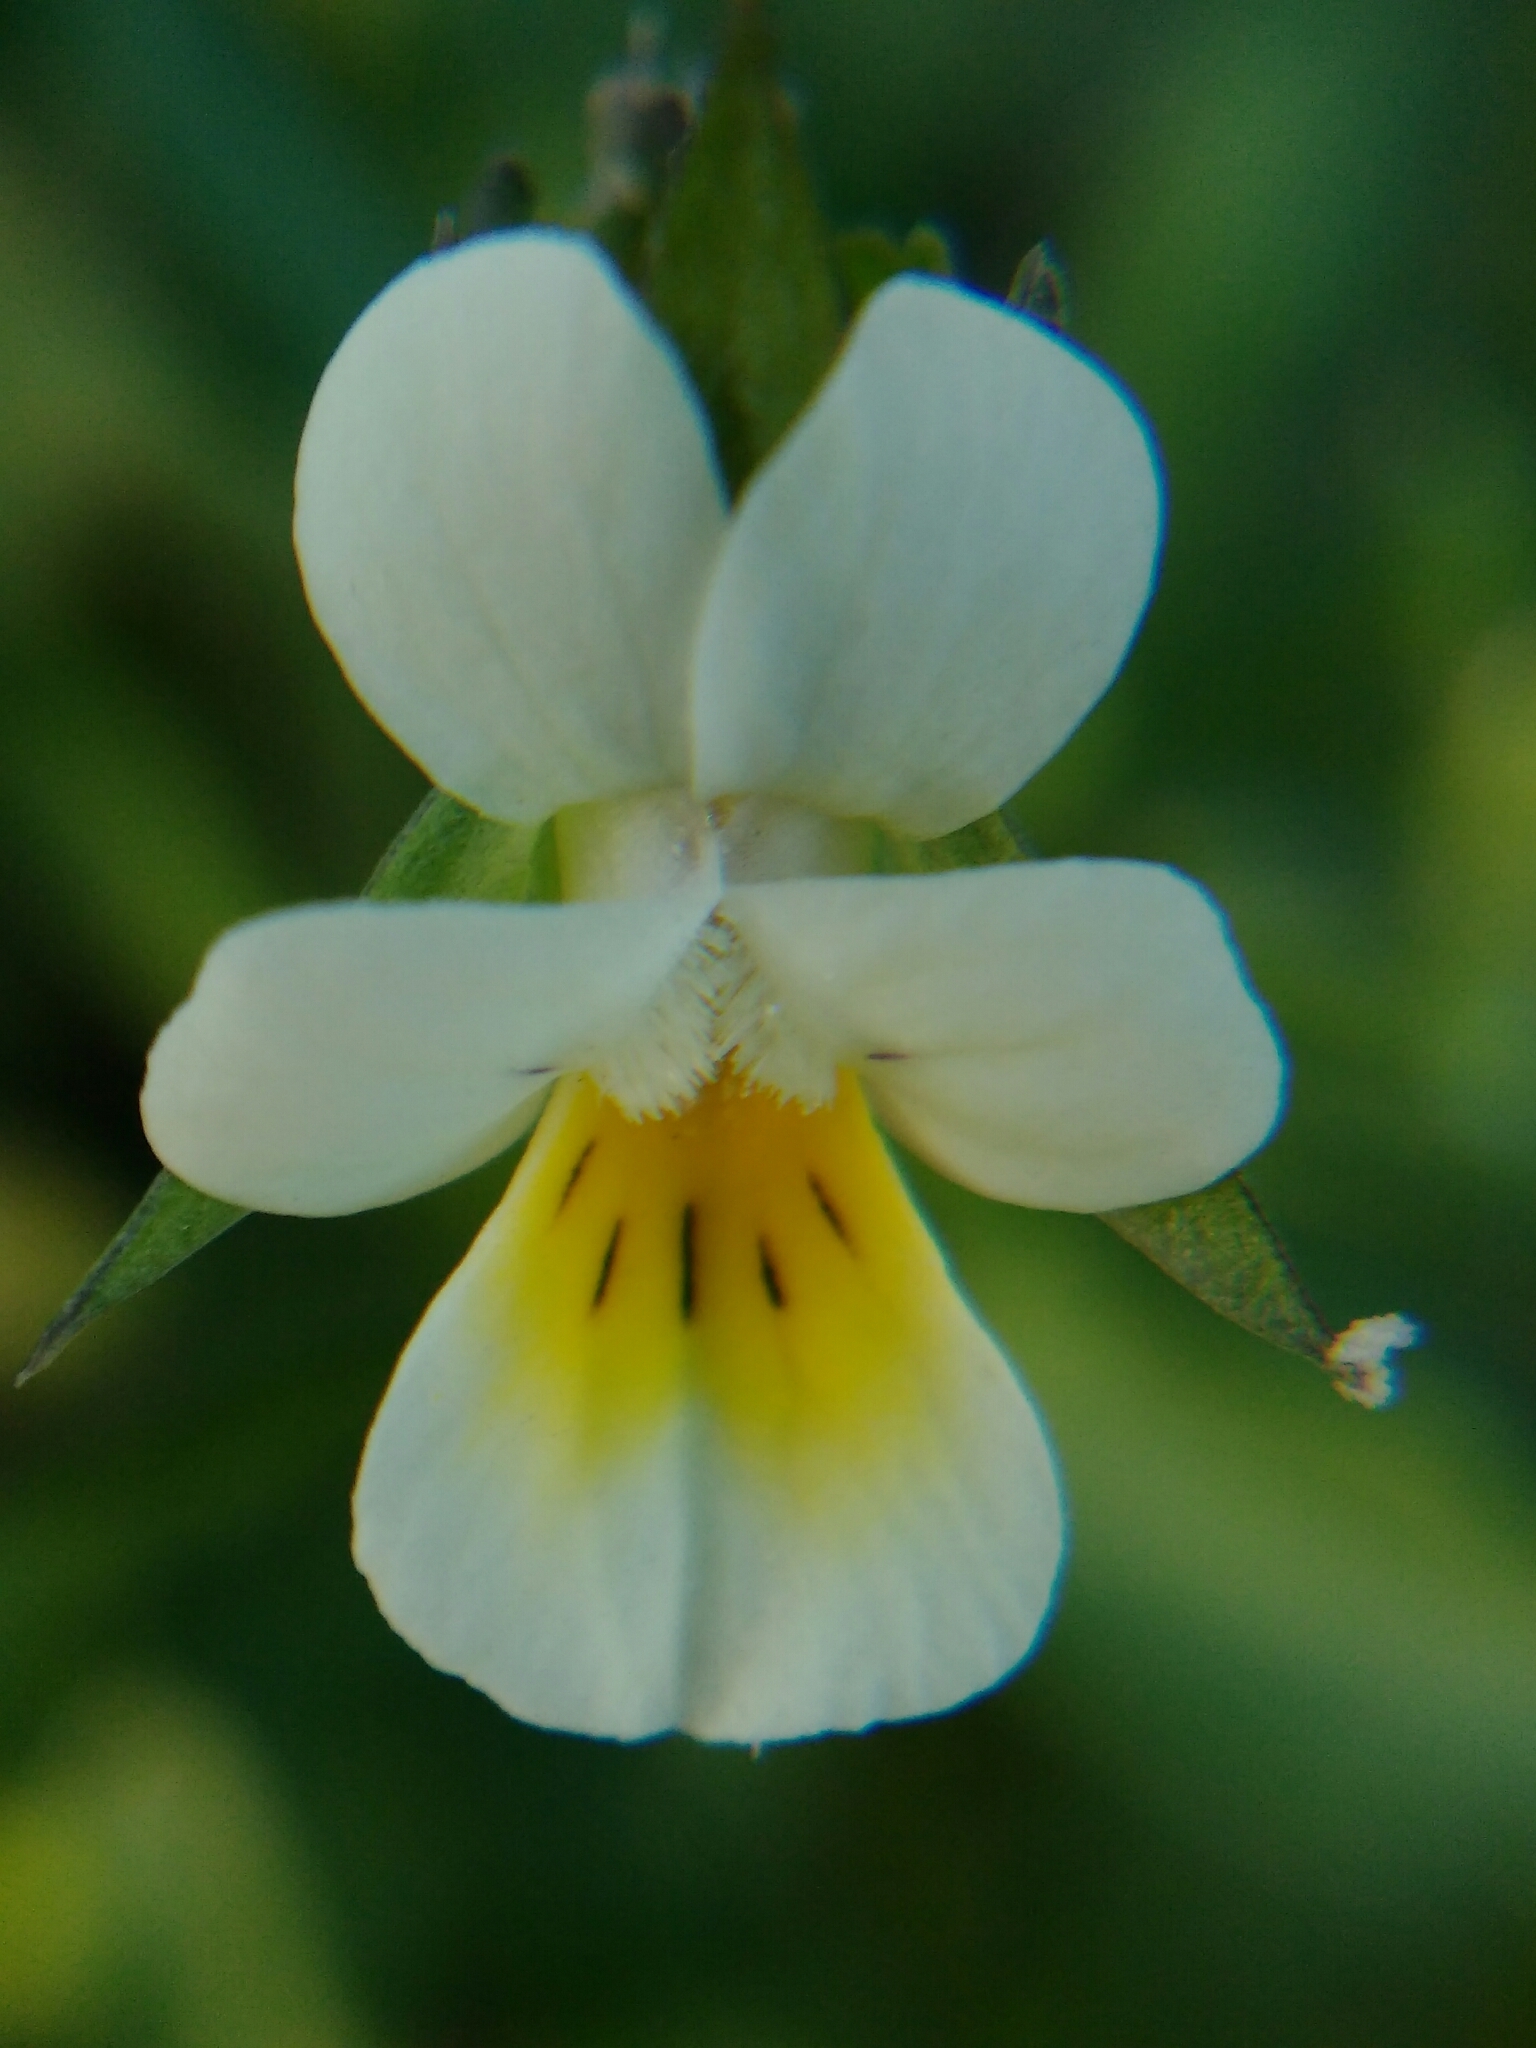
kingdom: Plantae
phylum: Tracheophyta
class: Magnoliopsida
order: Malpighiales
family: Violaceae
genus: Viola
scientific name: Viola arvensis
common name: Field pansy
